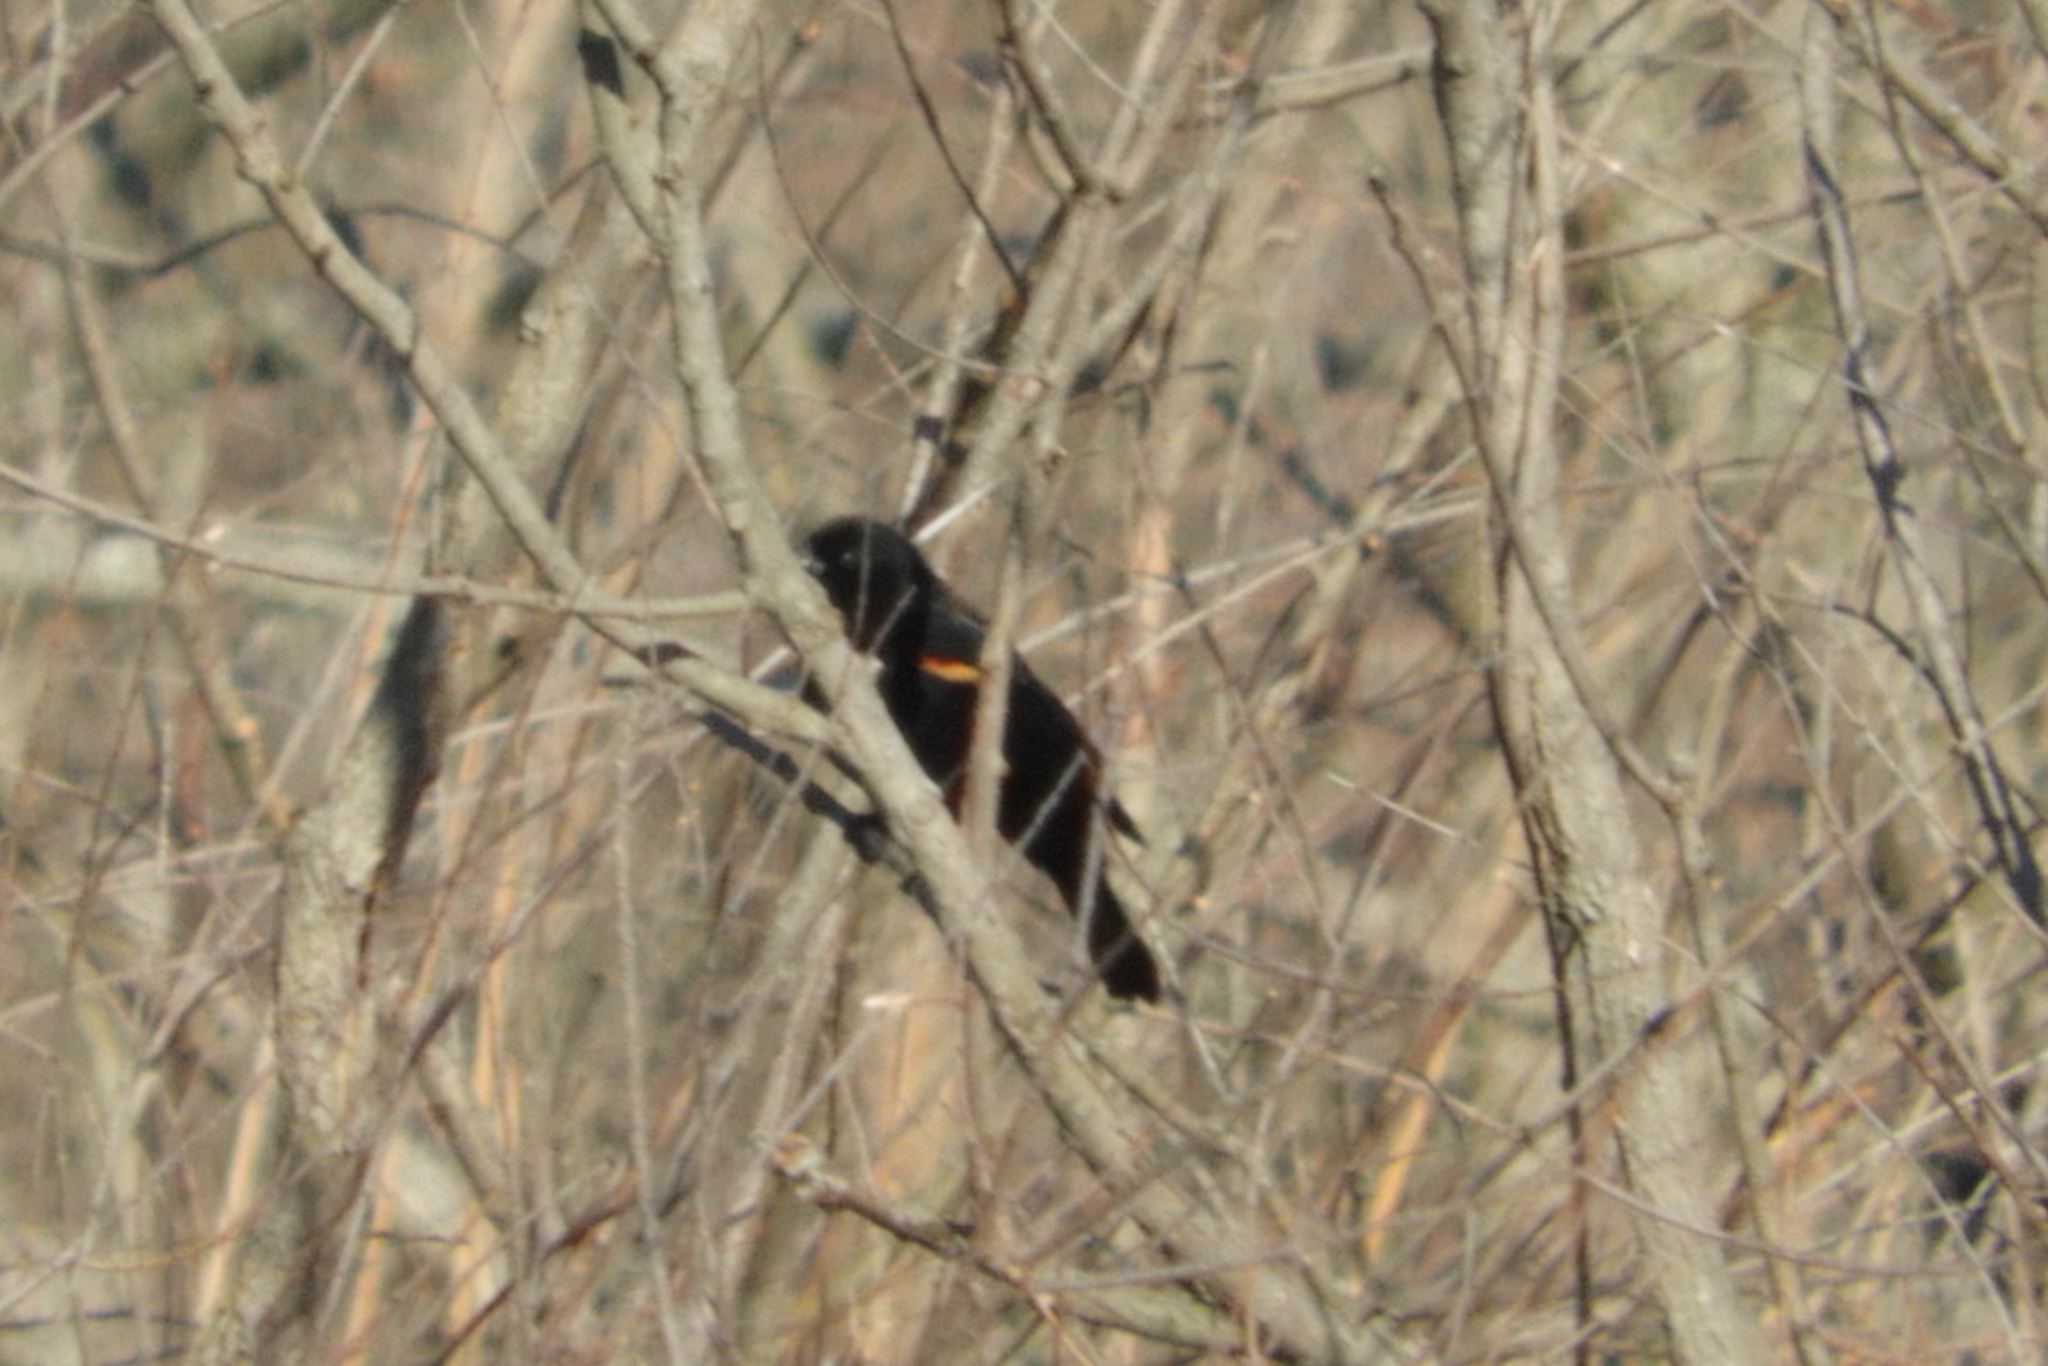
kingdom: Animalia
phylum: Chordata
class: Aves
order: Passeriformes
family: Icteridae
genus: Agelaius
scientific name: Agelaius phoeniceus
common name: Red-winged blackbird
